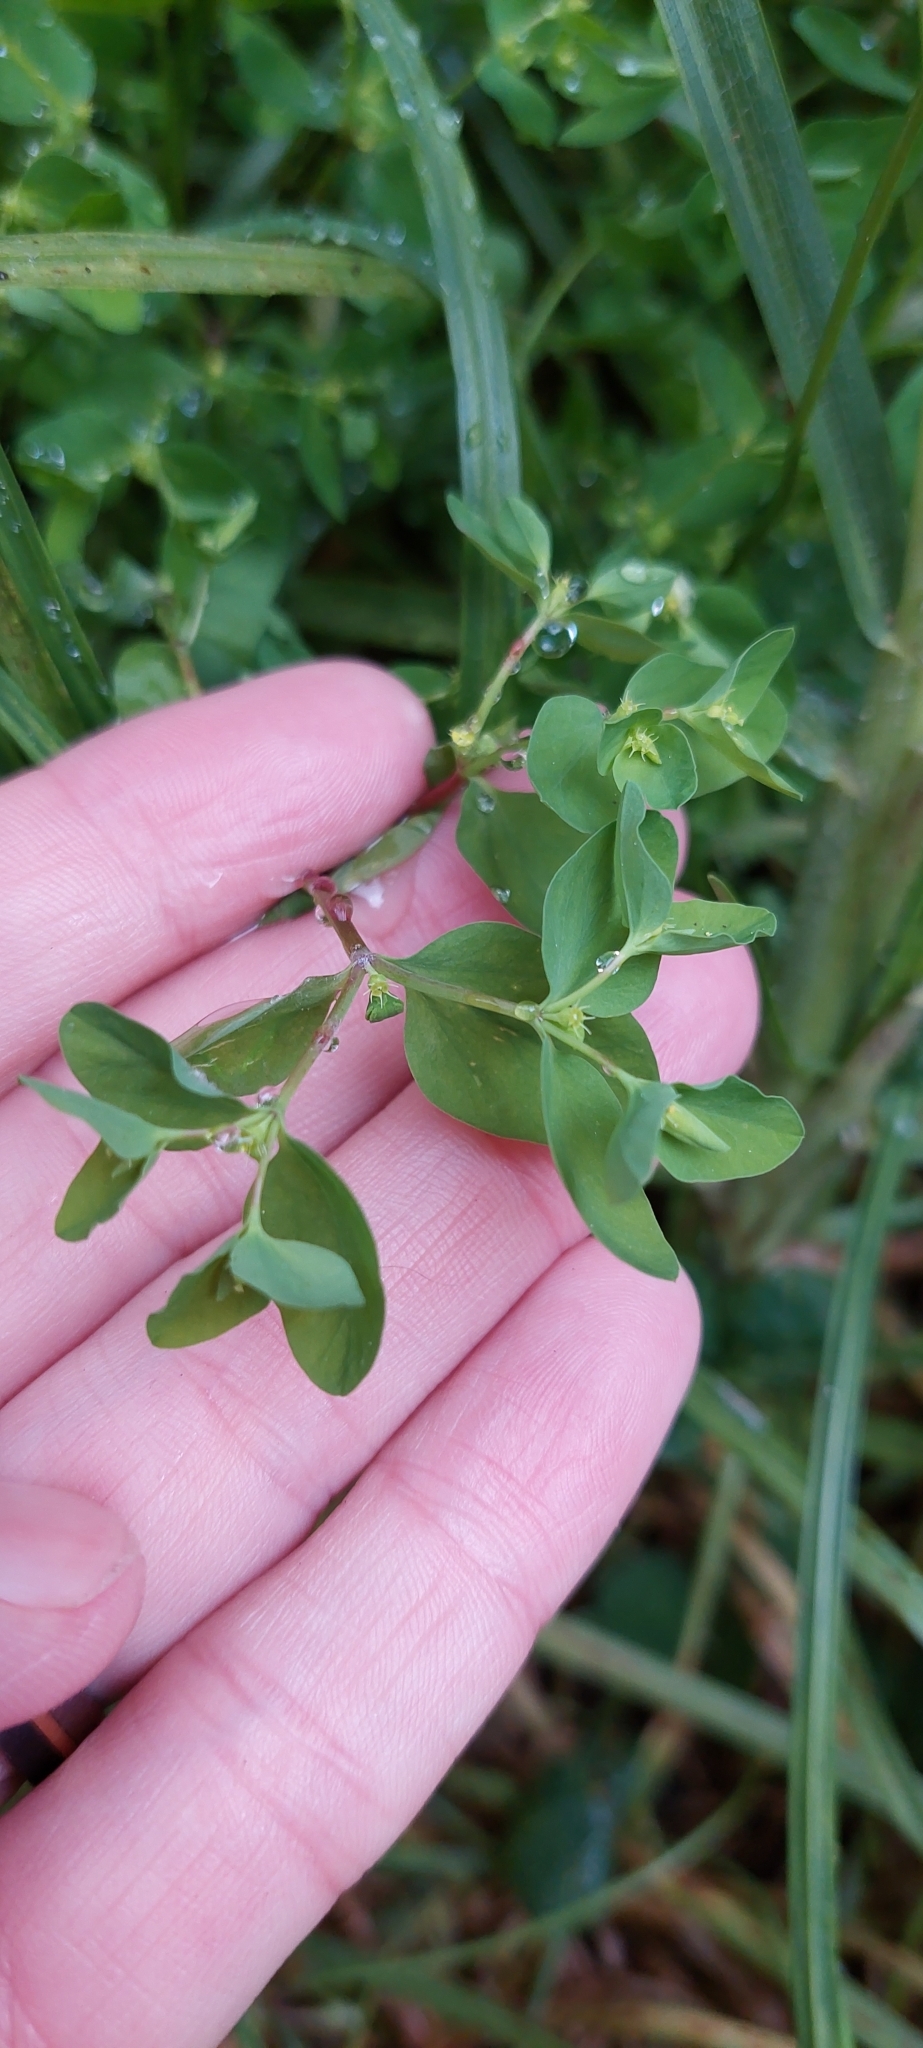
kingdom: Plantae
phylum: Tracheophyta
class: Magnoliopsida
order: Malpighiales
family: Euphorbiaceae
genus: Euphorbia
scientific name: Euphorbia peplus
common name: Petty spurge
